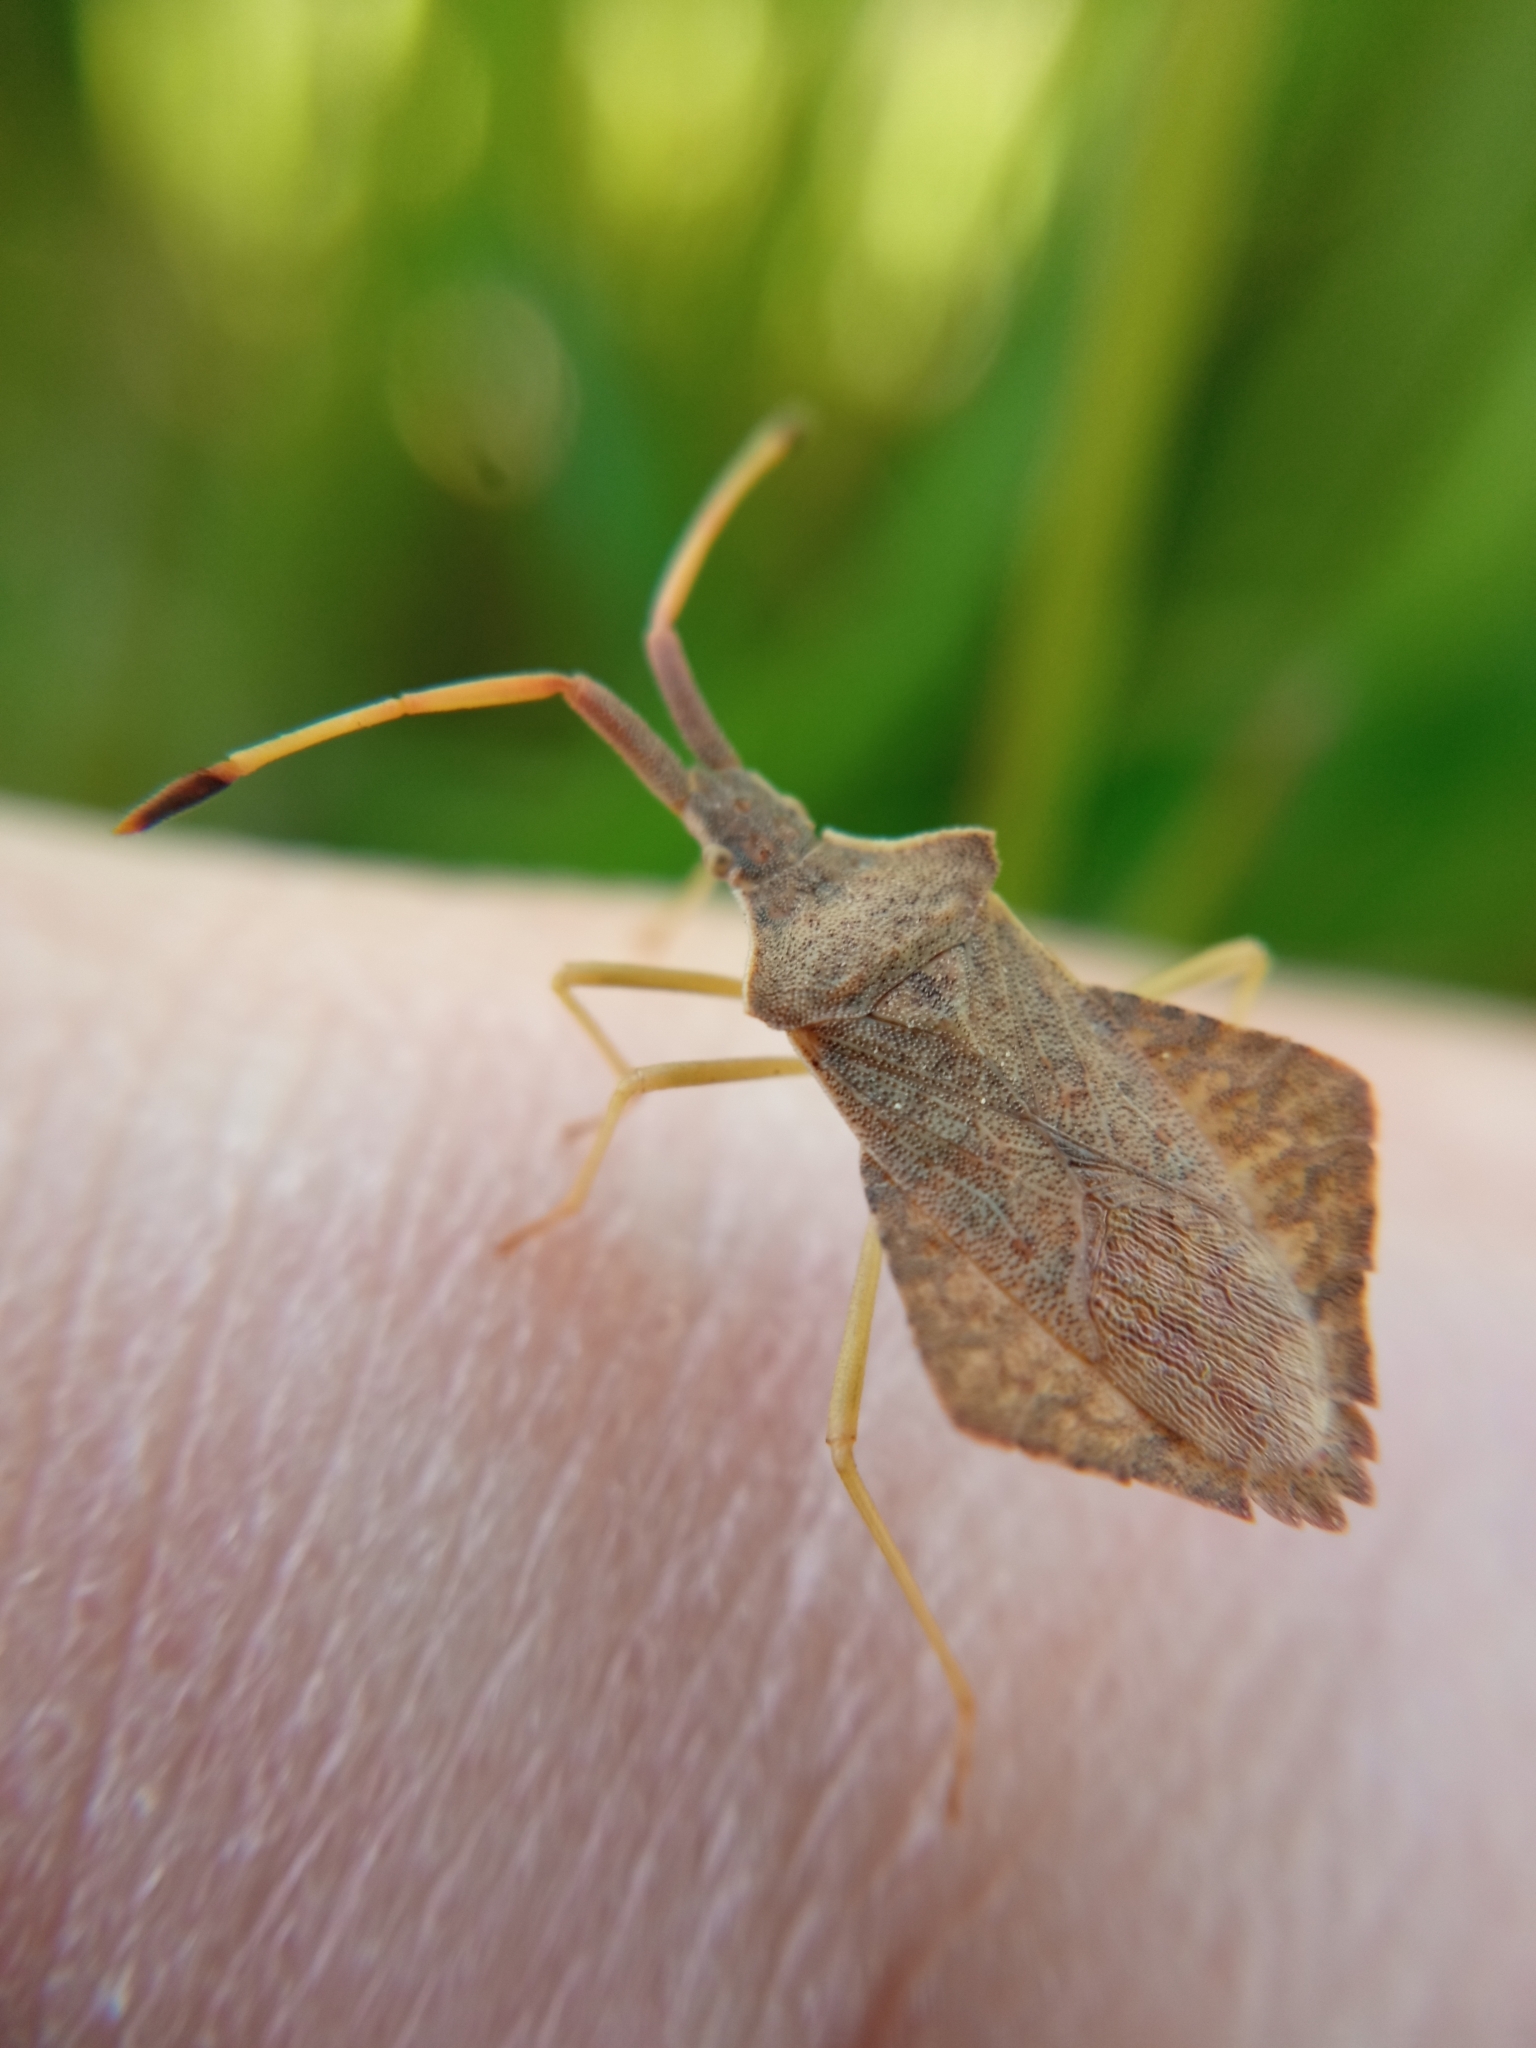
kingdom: Animalia
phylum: Arthropoda
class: Insecta
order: Hemiptera
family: Coreidae
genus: Syromastus
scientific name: Syromastus rhombeus
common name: Rhombic leatherbug
